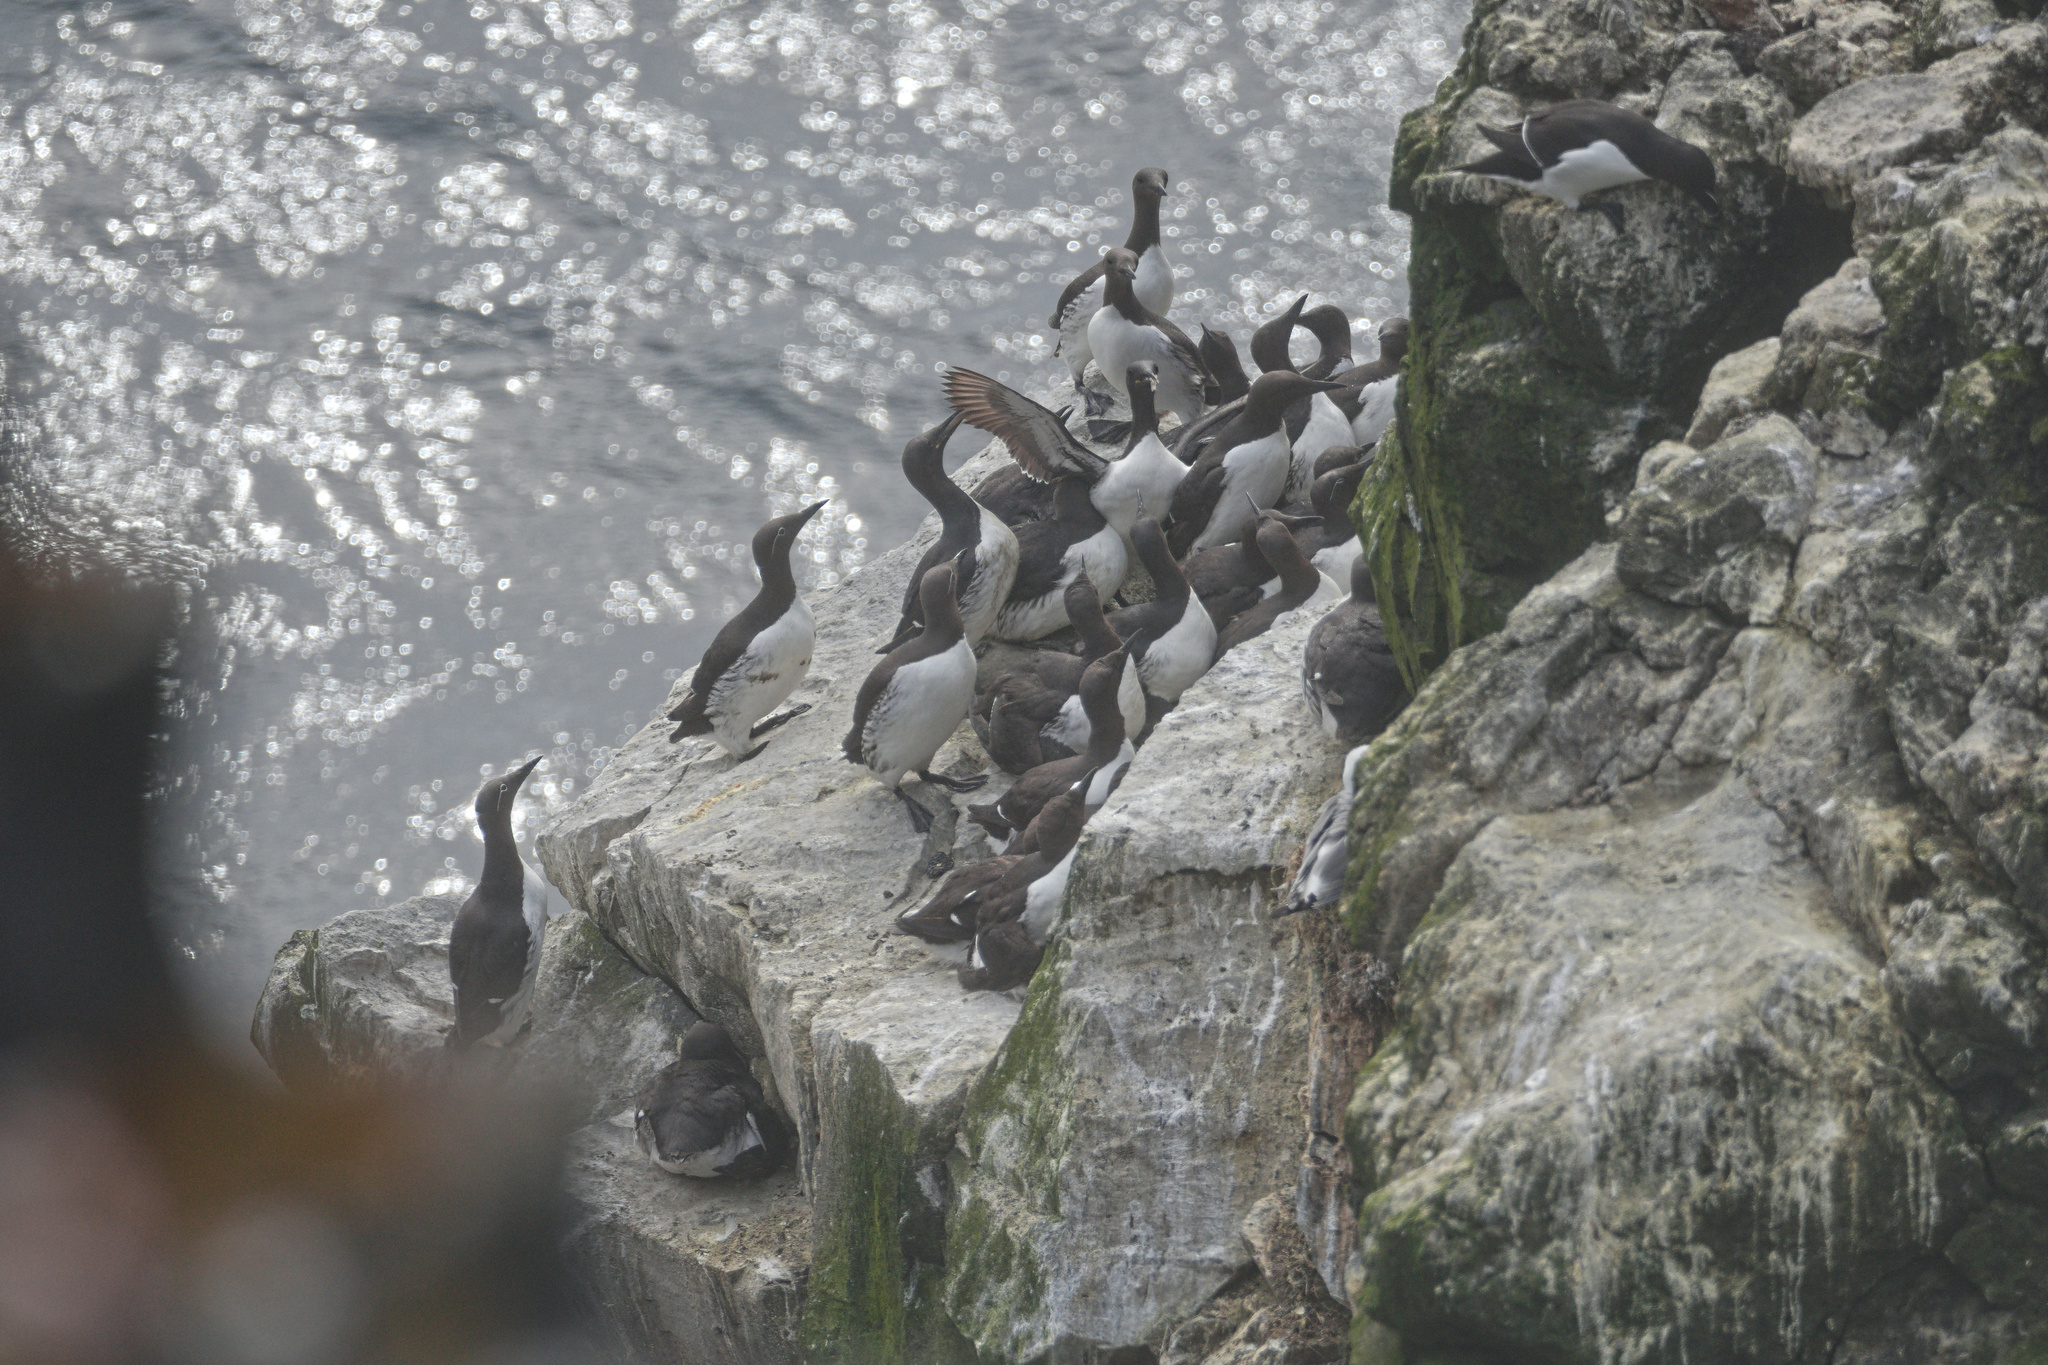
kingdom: Animalia
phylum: Chordata
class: Aves
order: Charadriiformes
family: Alcidae
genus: Uria
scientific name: Uria aalge
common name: Common murre
